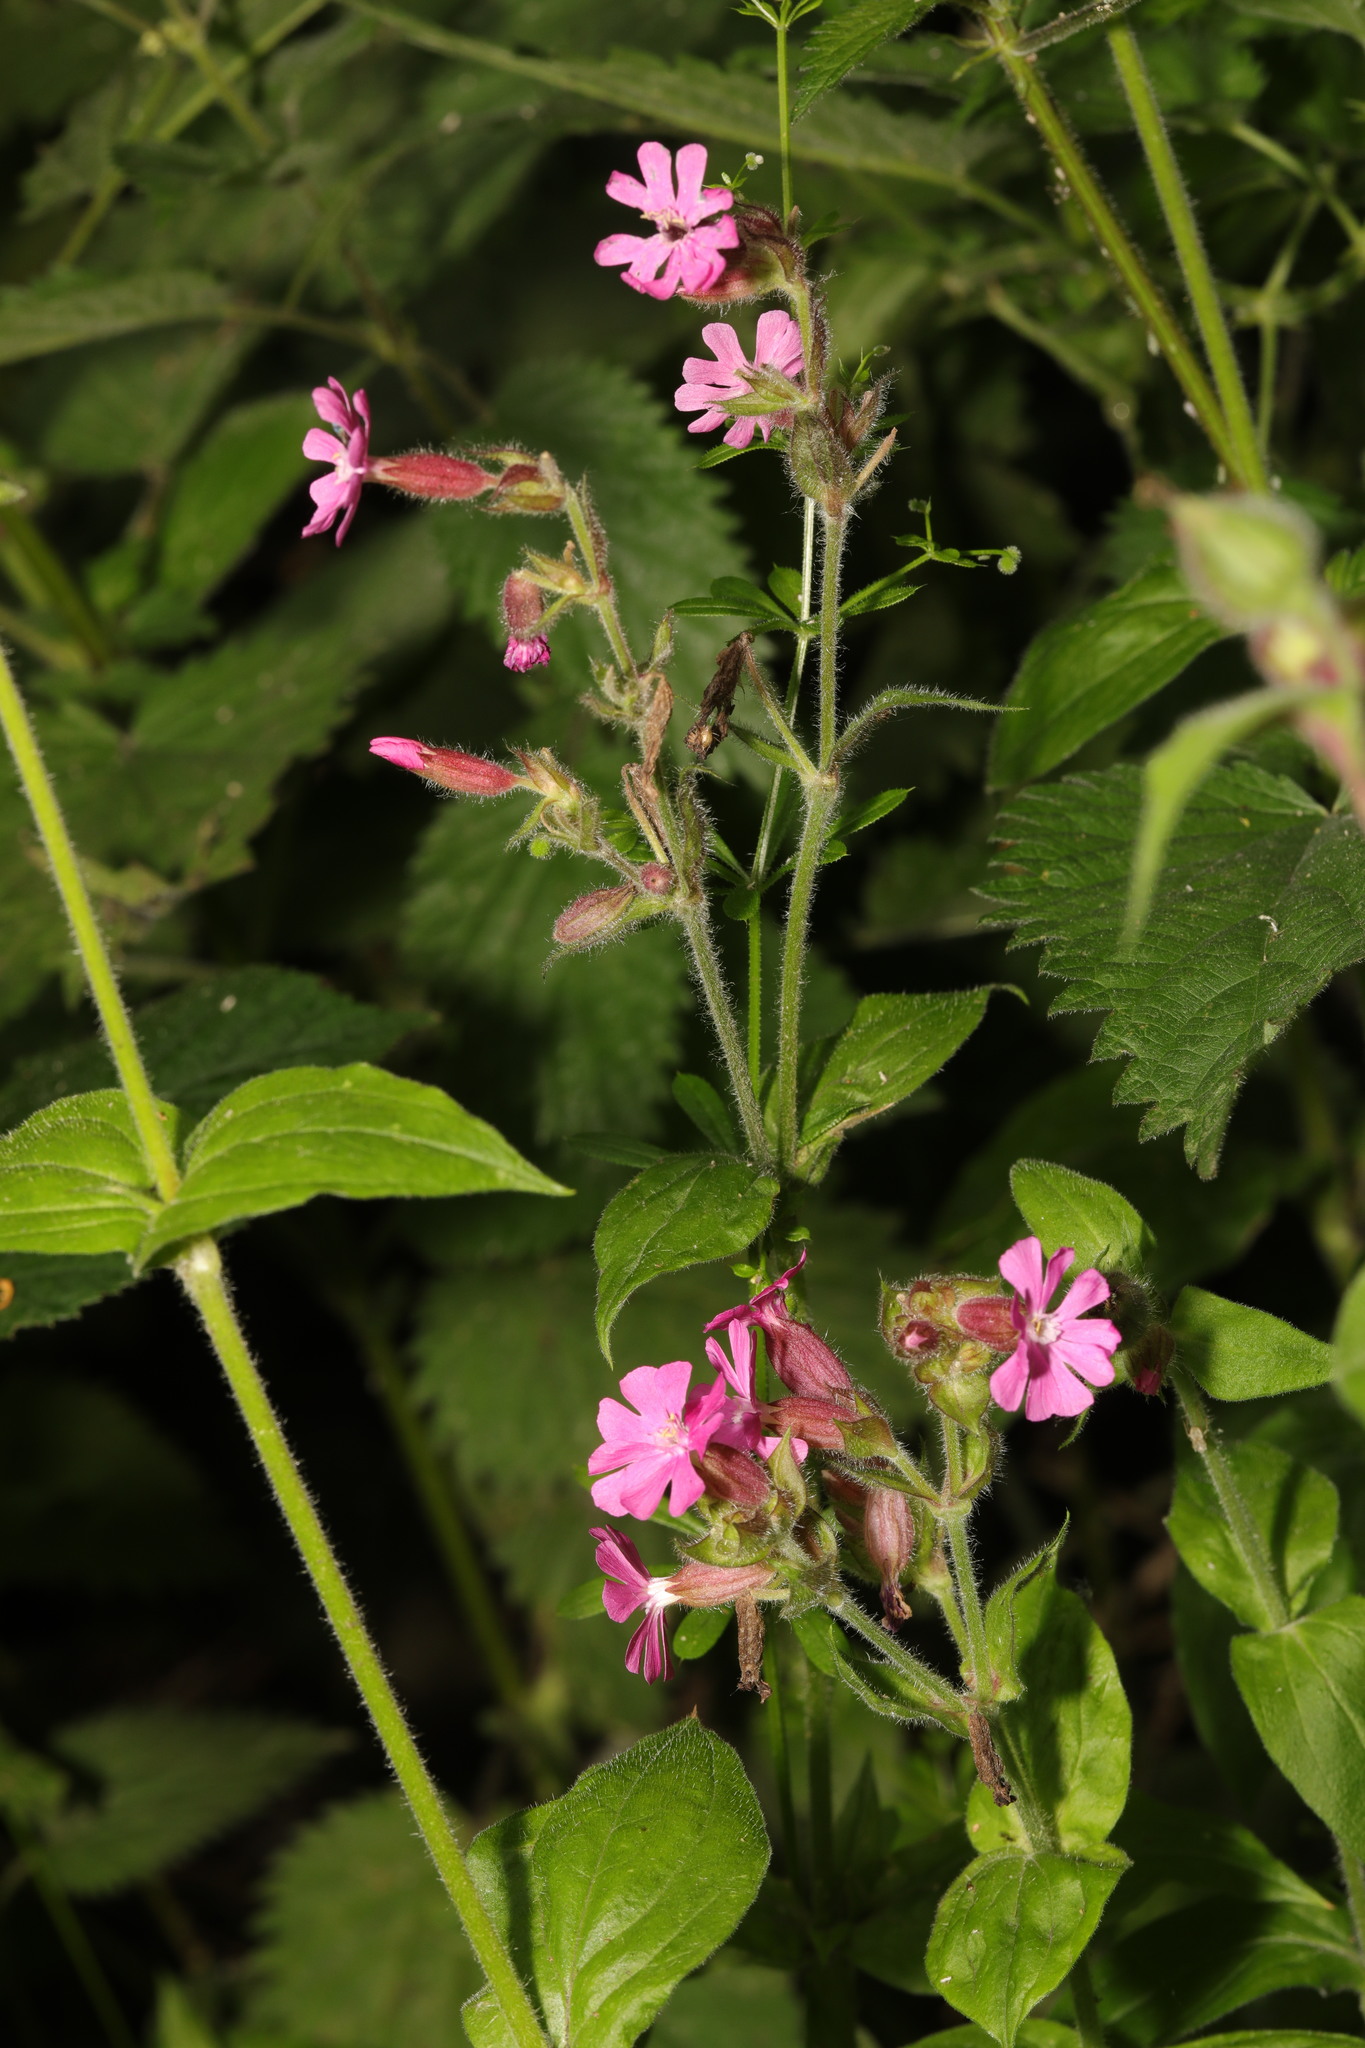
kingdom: Plantae
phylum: Tracheophyta
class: Magnoliopsida
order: Caryophyllales
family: Caryophyllaceae
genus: Silene
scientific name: Silene dioica
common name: Red campion
